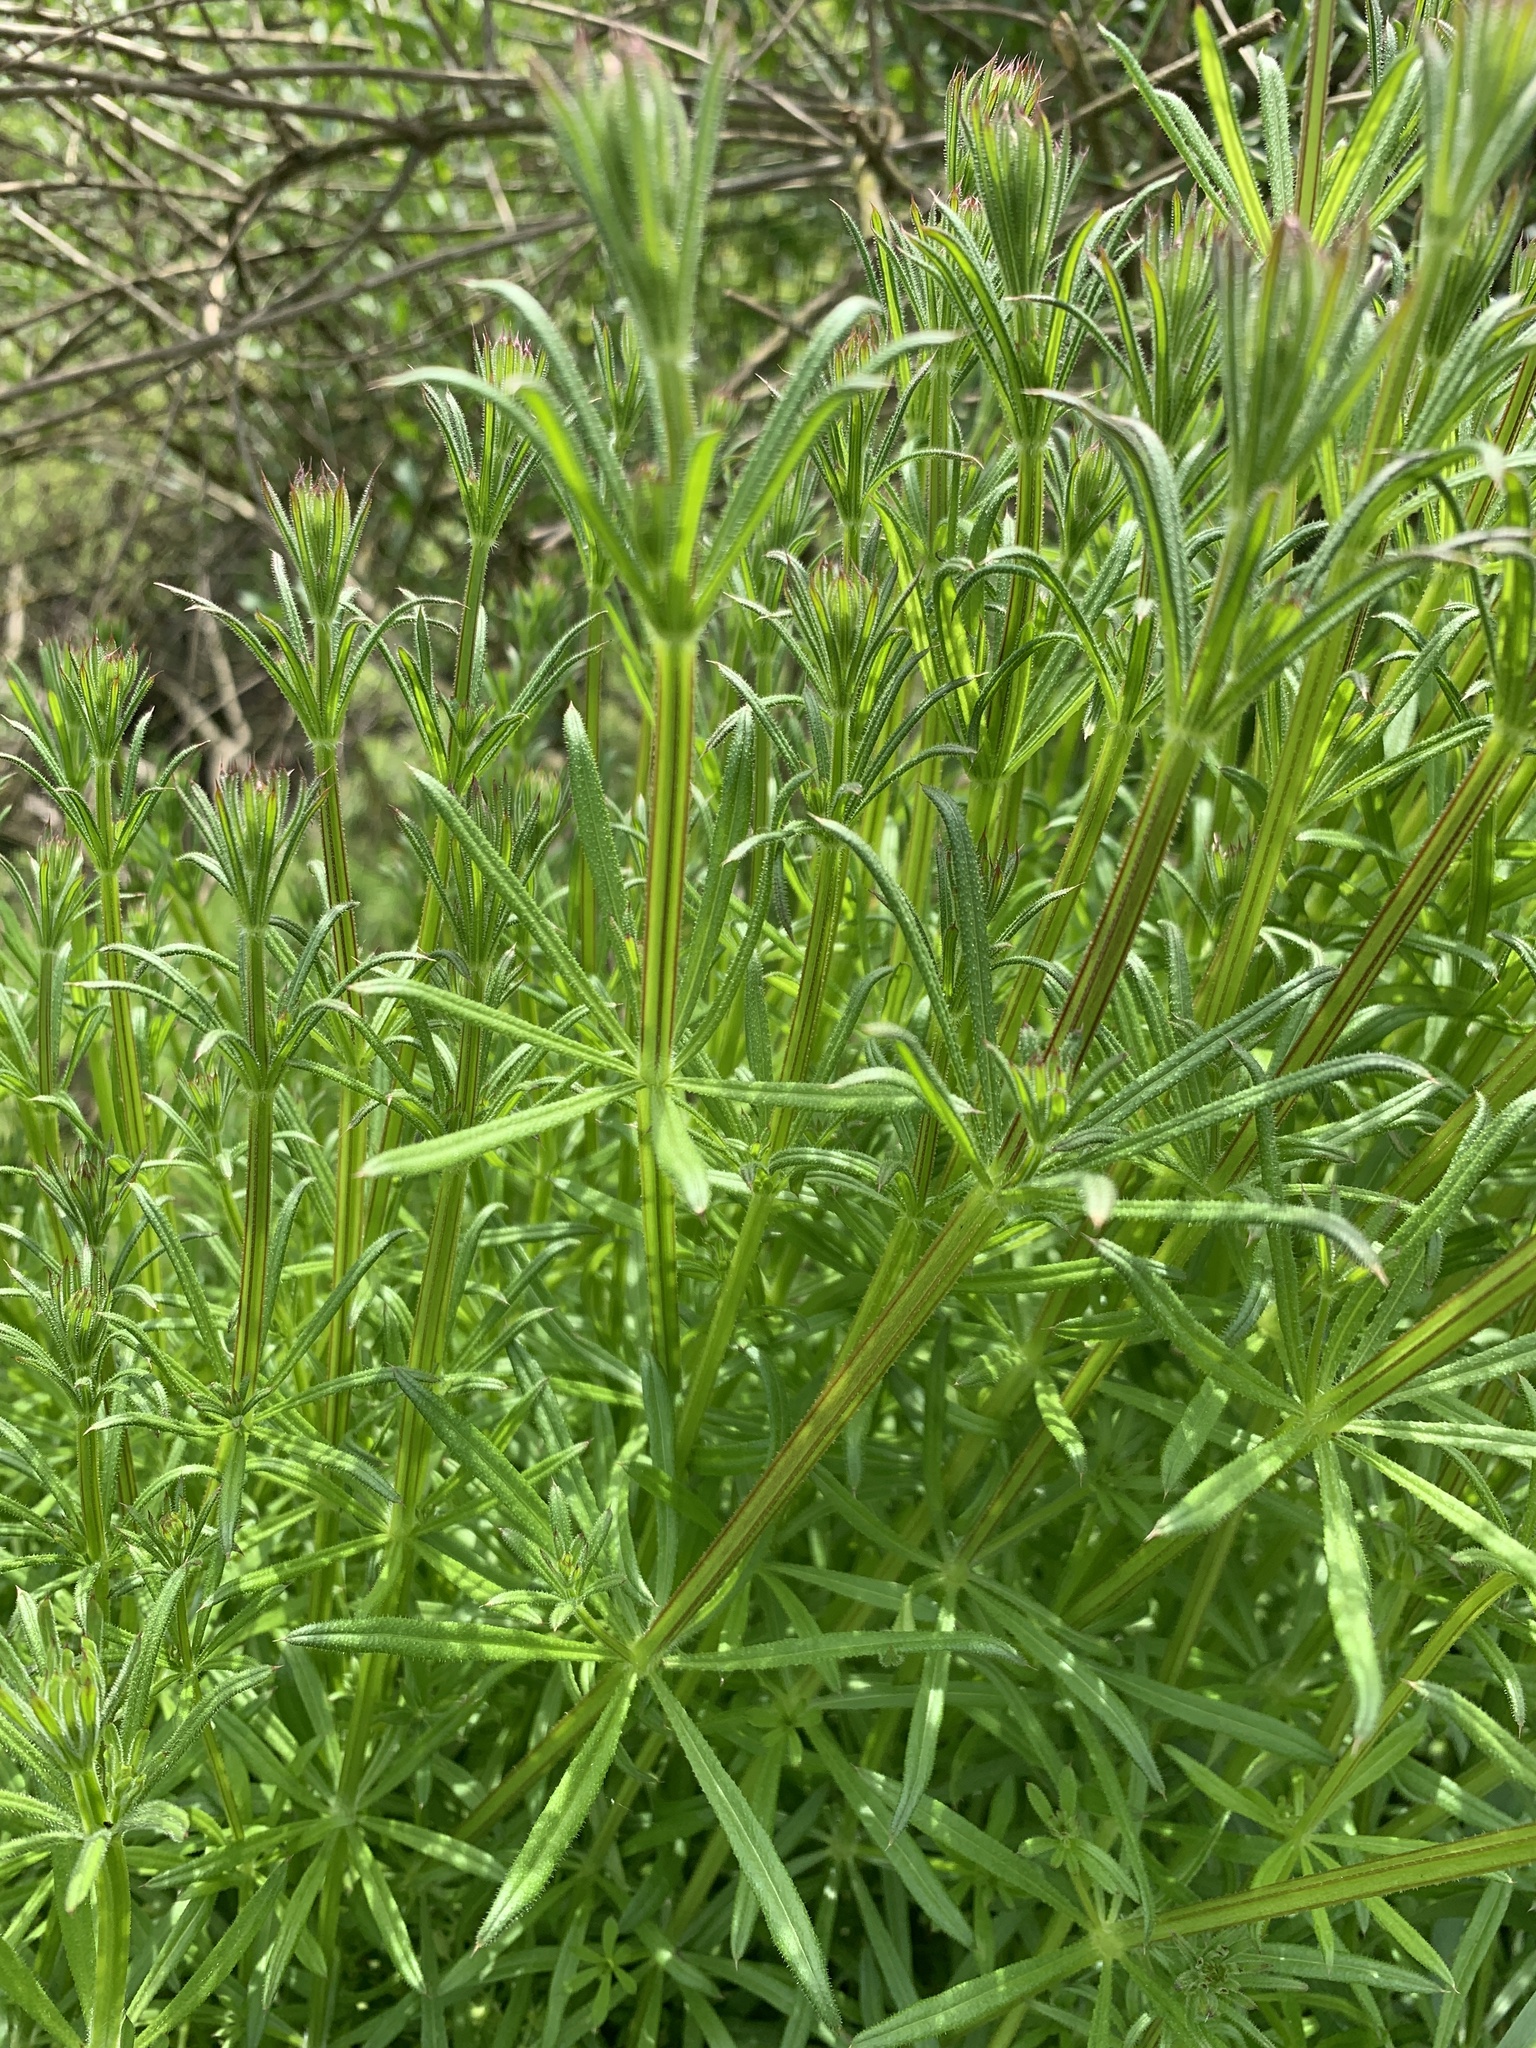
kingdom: Plantae
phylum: Tracheophyta
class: Magnoliopsida
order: Gentianales
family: Rubiaceae
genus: Galium
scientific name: Galium aparine
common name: Cleavers
